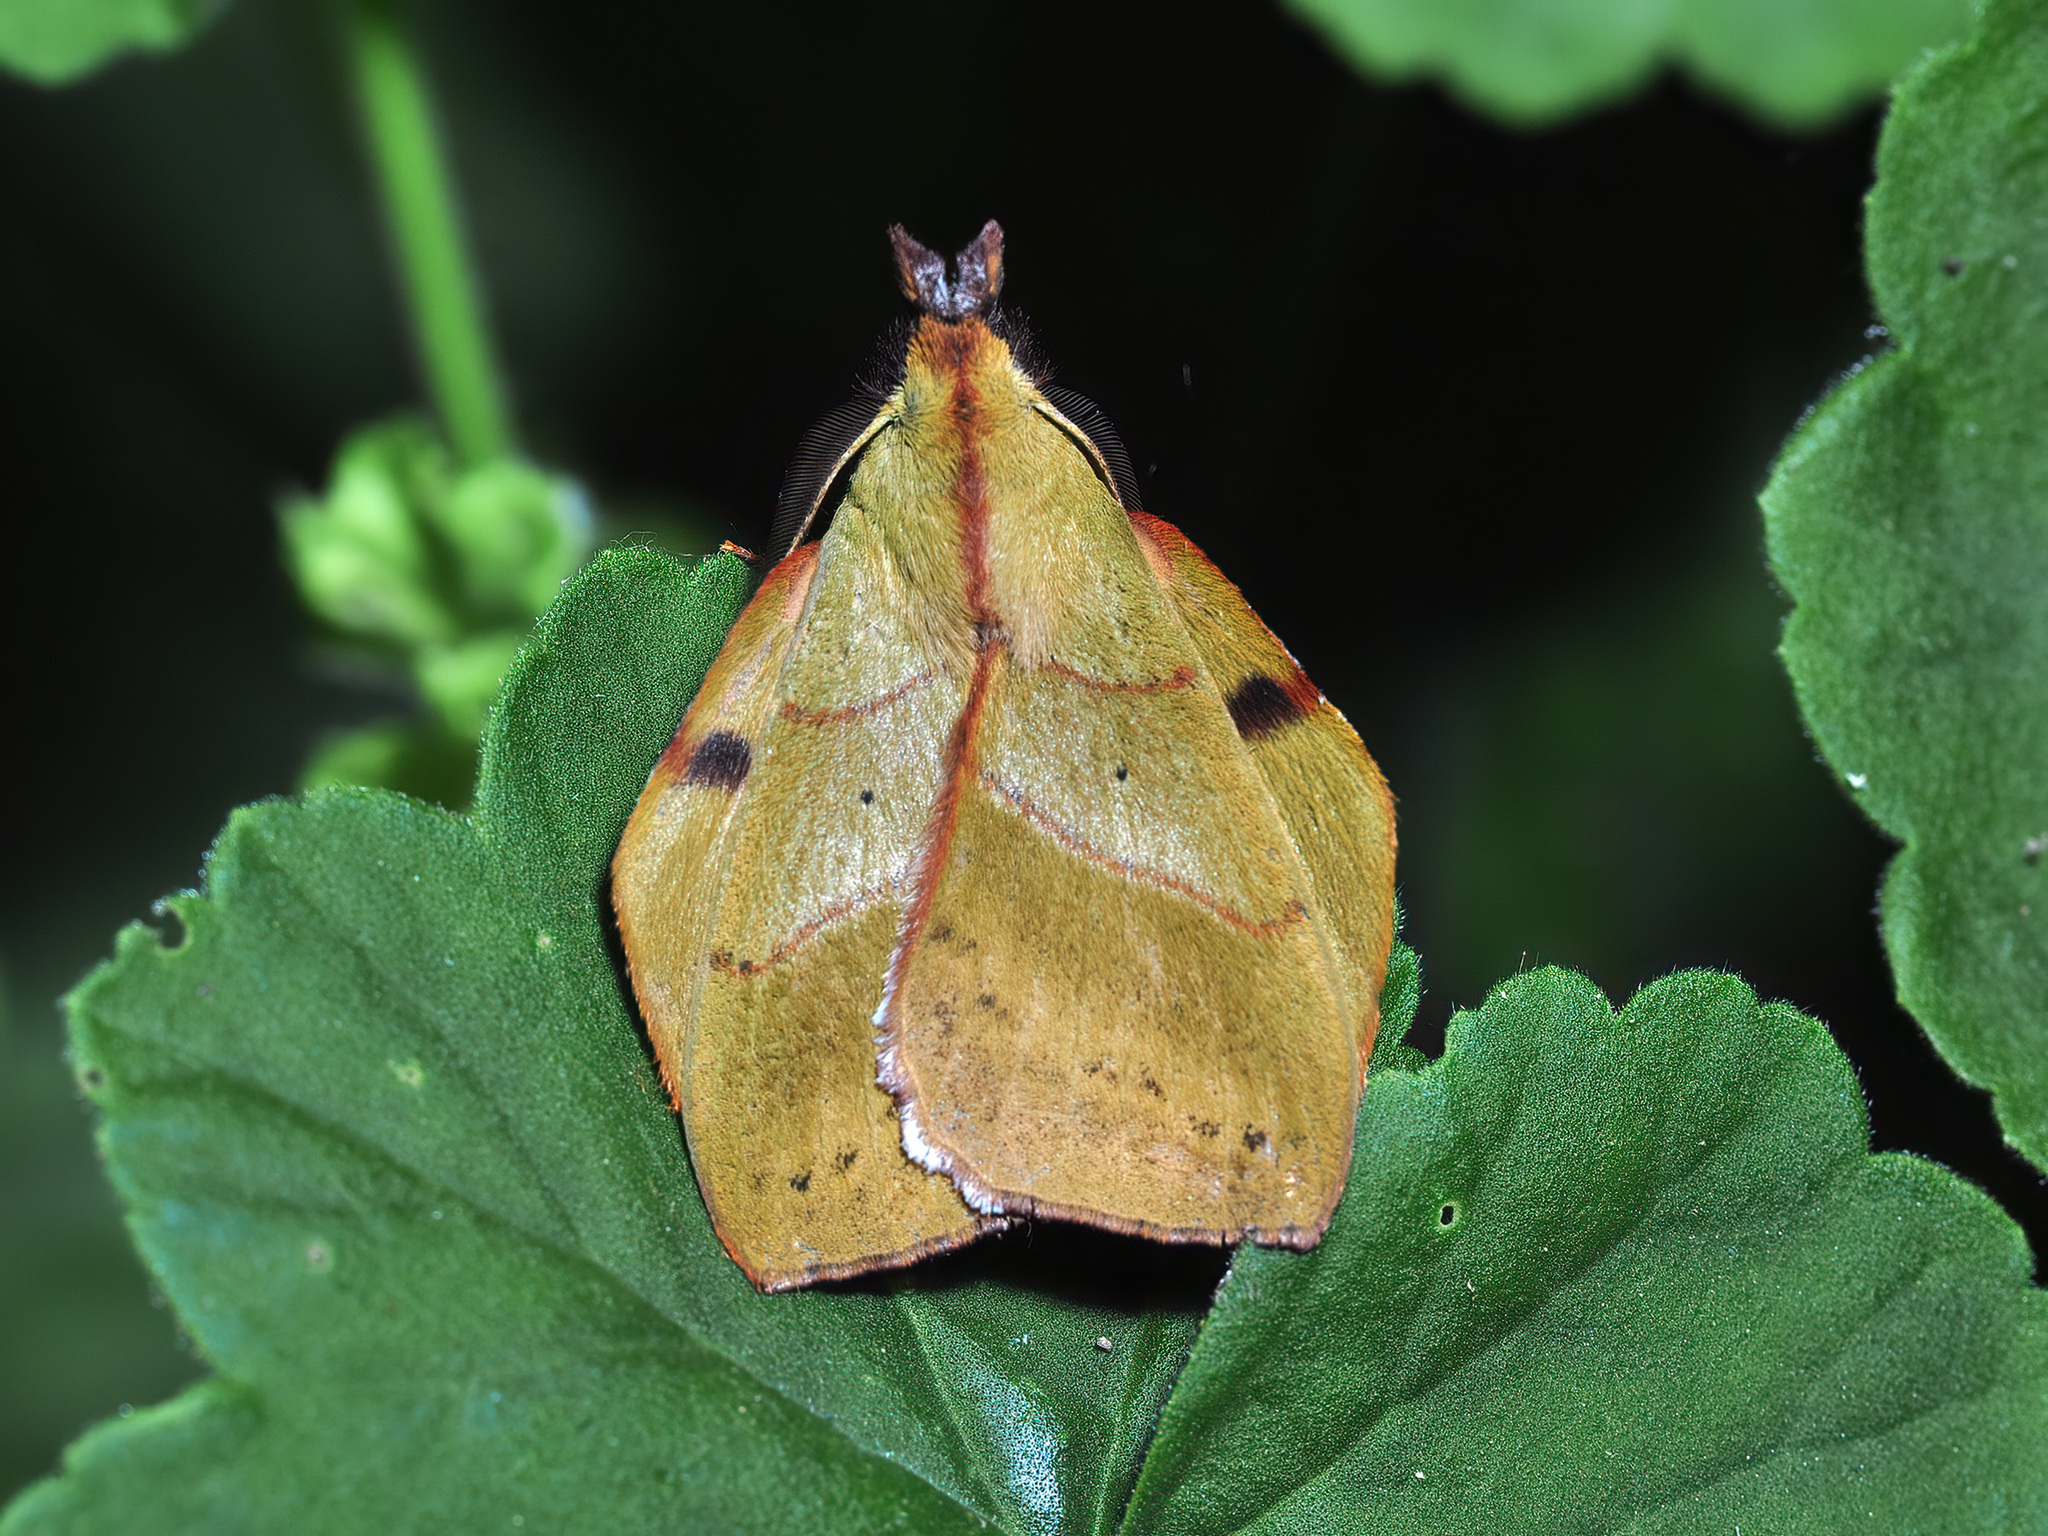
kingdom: Animalia
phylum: Arthropoda
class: Insecta
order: Lepidoptera
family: Lasiocampidae
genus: Radhica
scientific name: Radhica elisabethae
